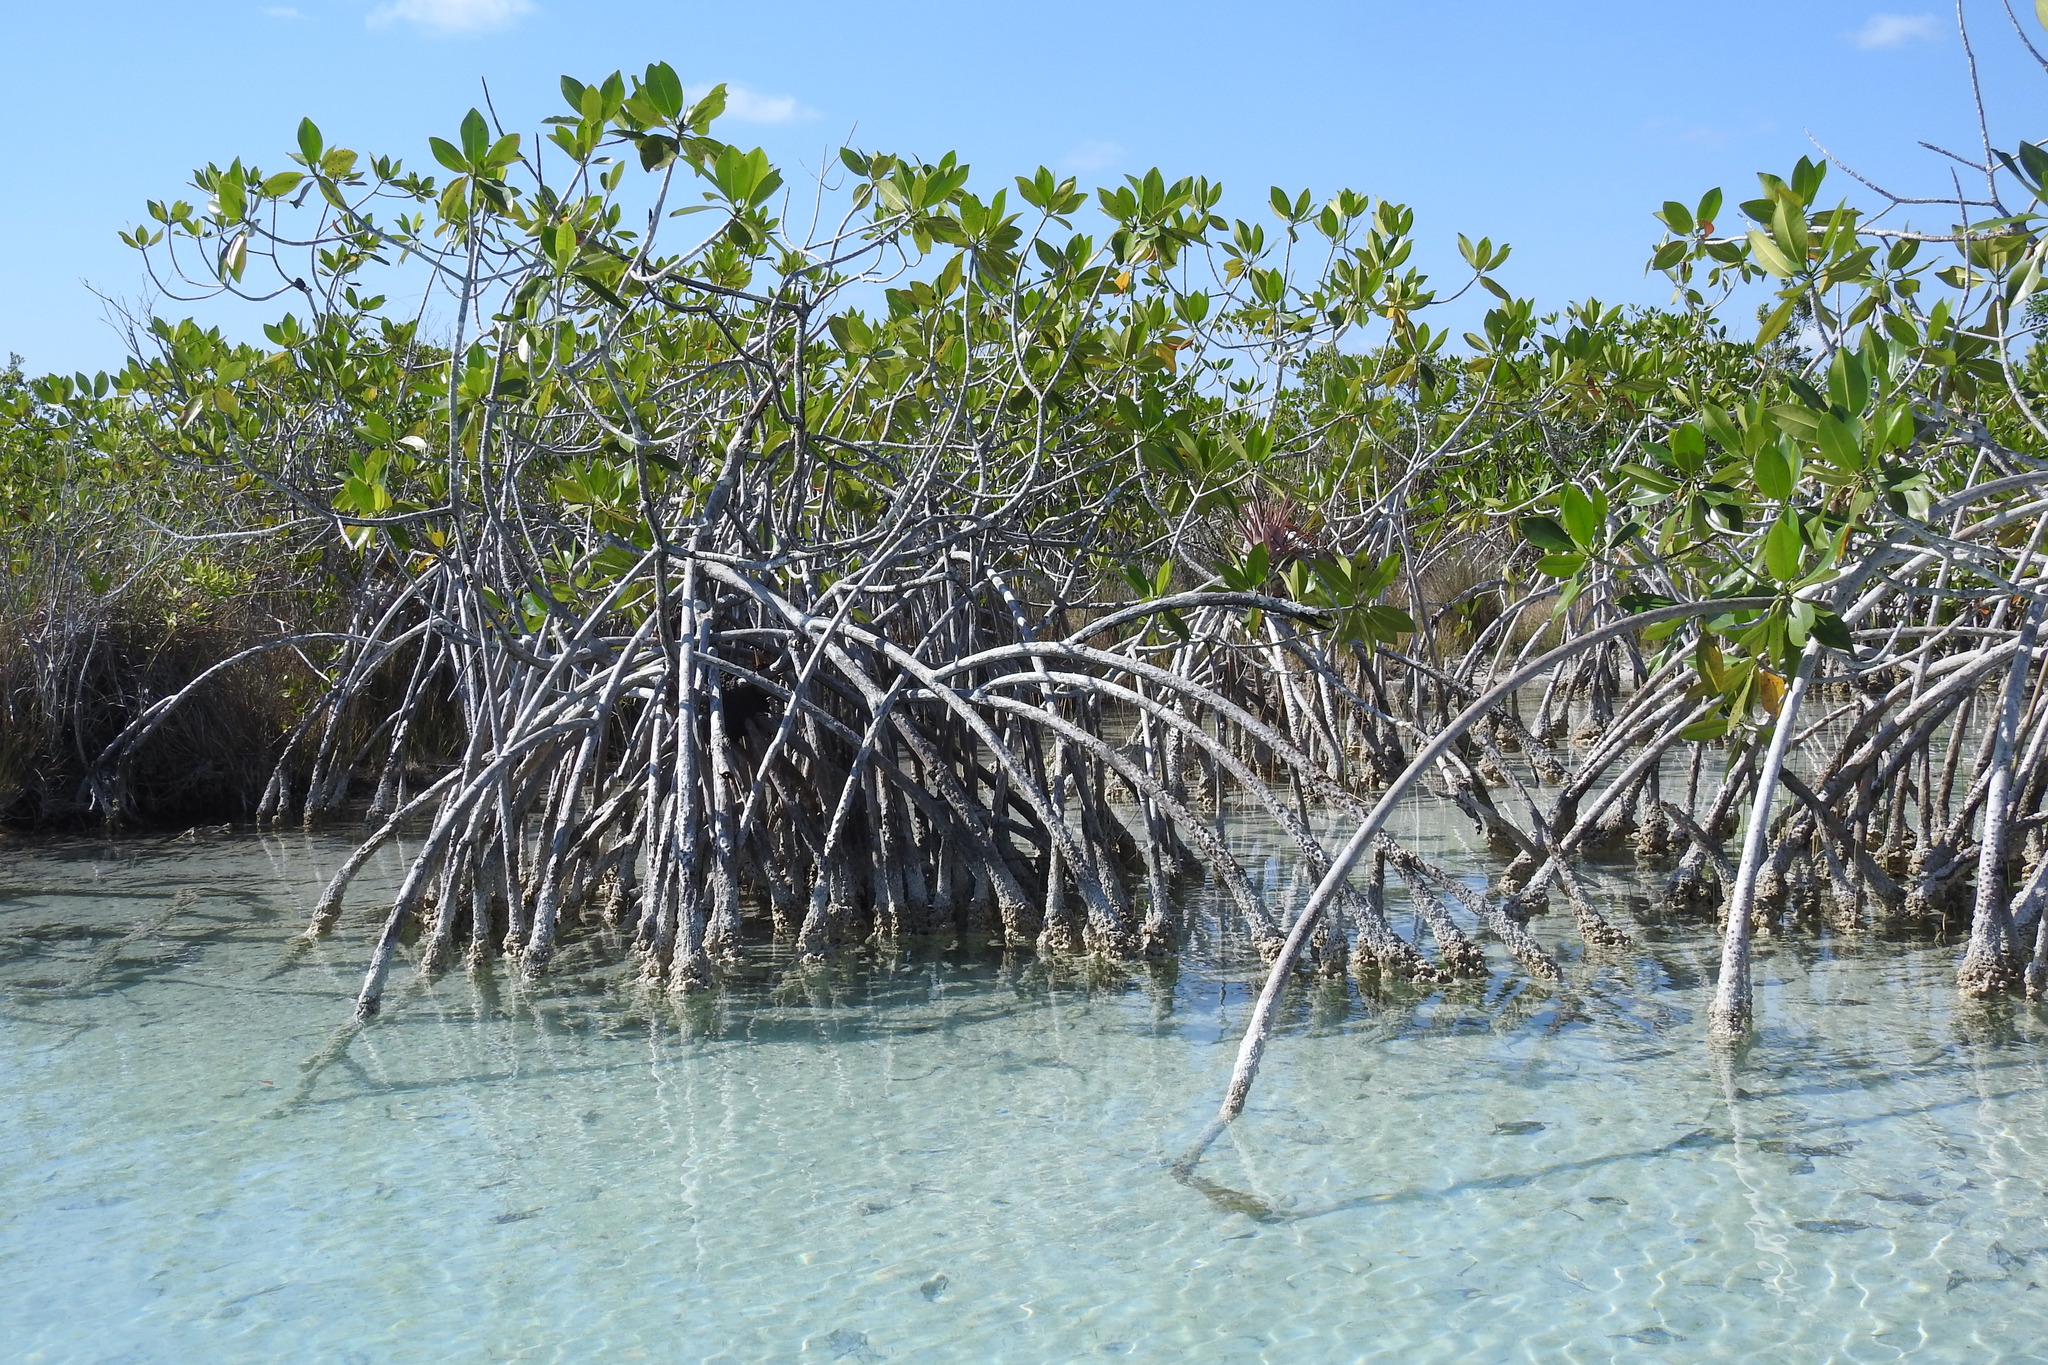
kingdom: Plantae
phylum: Tracheophyta
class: Magnoliopsida
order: Malpighiales
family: Rhizophoraceae
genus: Rhizophora
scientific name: Rhizophora mangle
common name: Red mangrove
